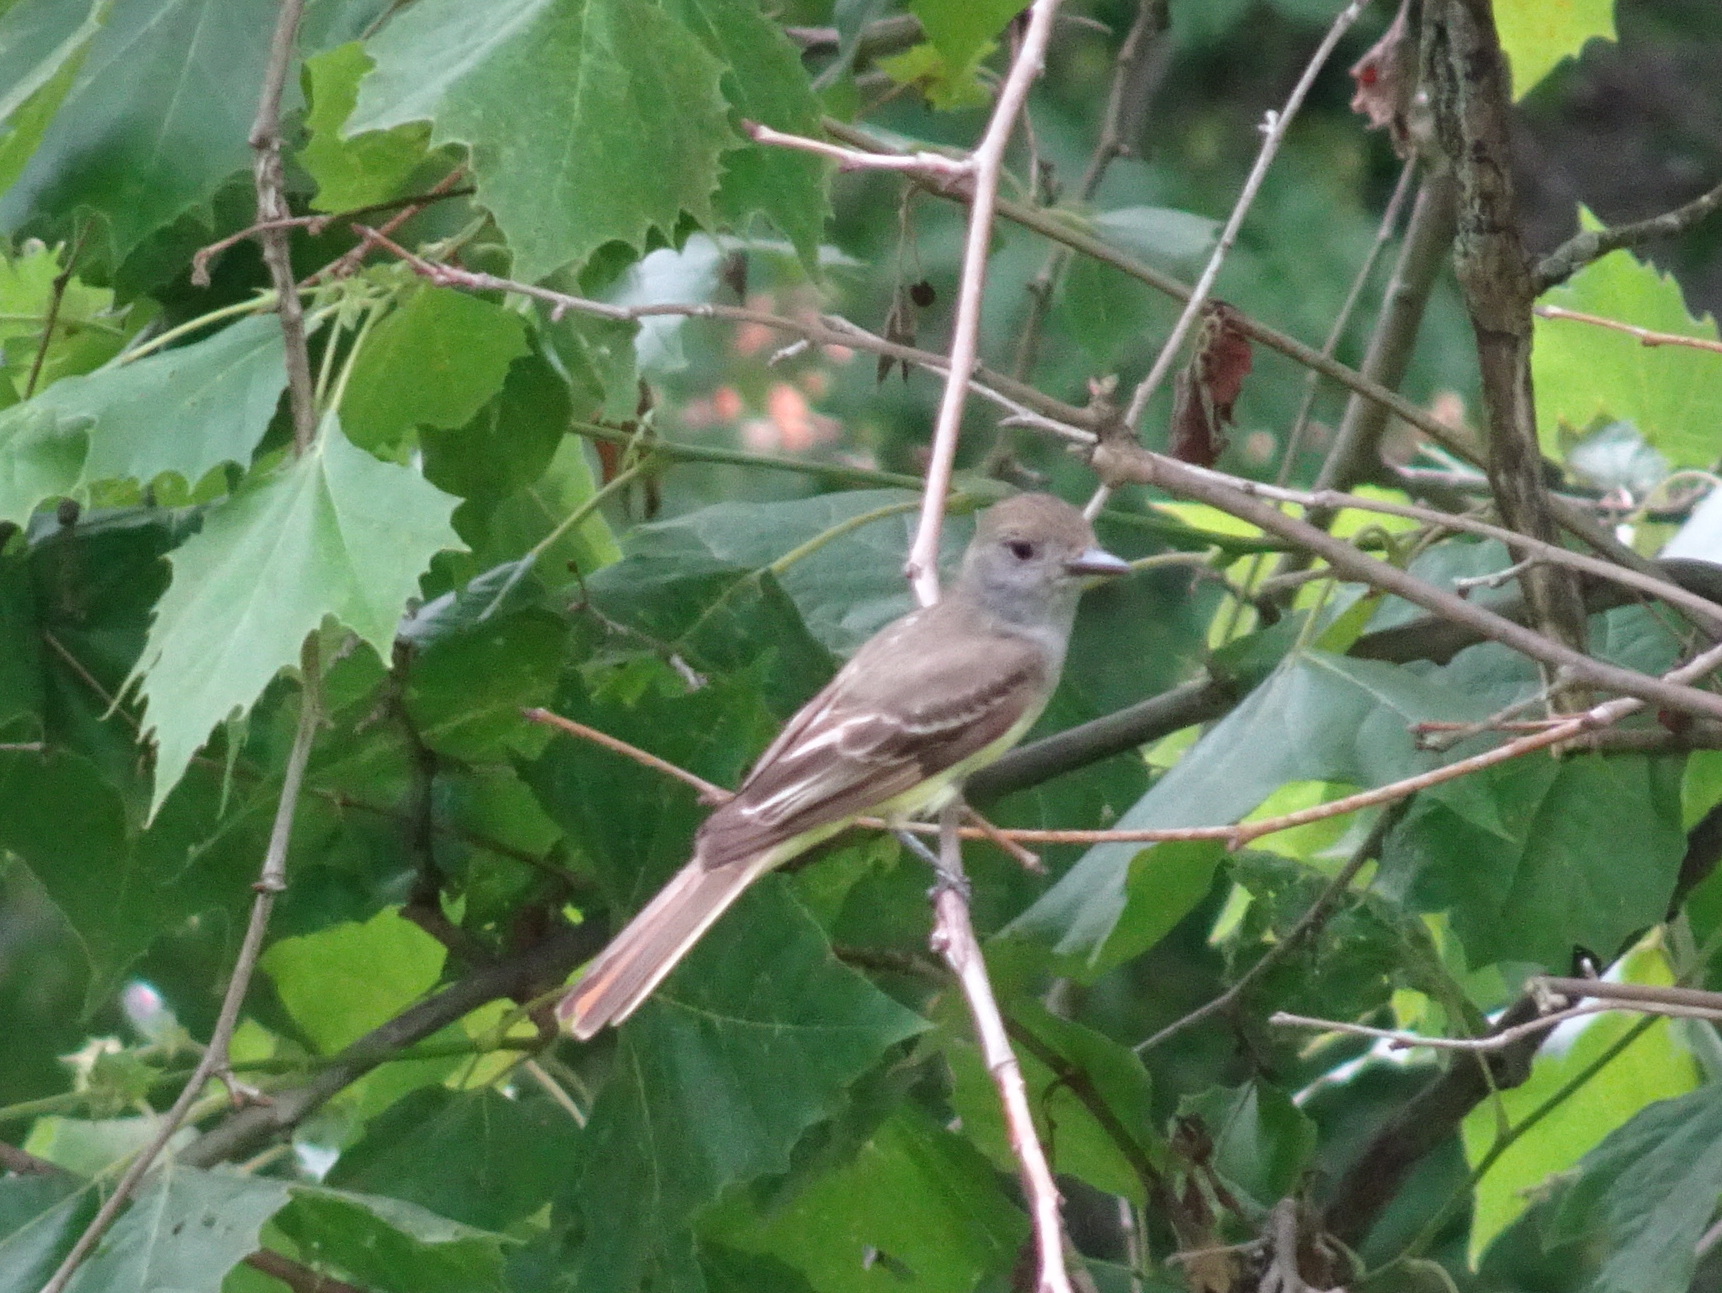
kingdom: Animalia
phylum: Chordata
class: Aves
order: Passeriformes
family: Tyrannidae
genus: Myiarchus
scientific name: Myiarchus crinitus
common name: Great crested flycatcher
